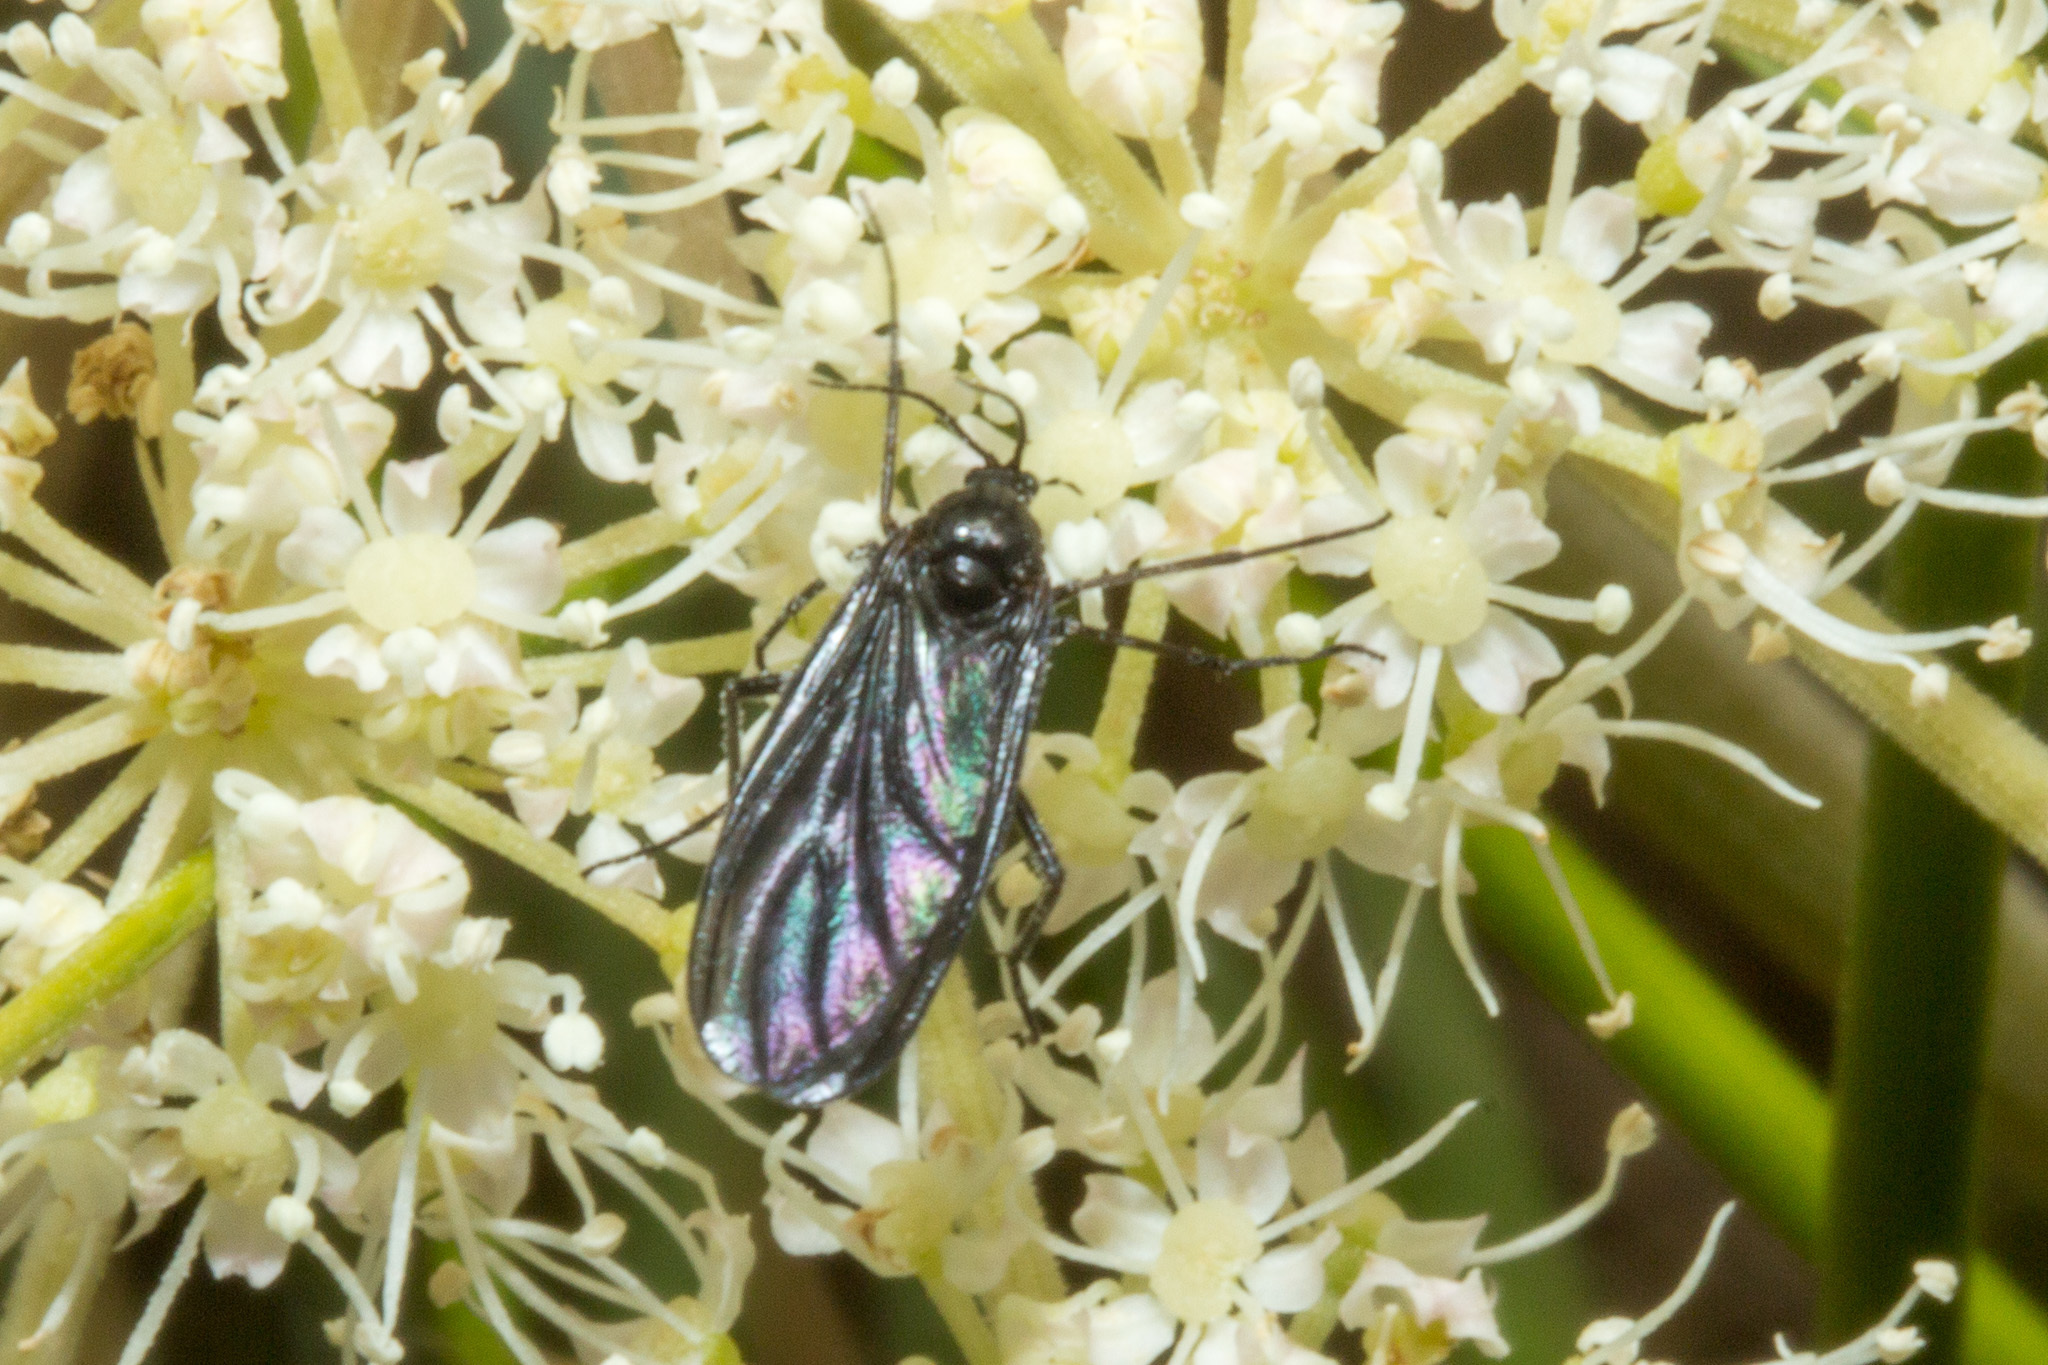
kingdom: Animalia
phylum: Arthropoda
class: Insecta
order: Diptera
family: Sciaridae
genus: Sciara
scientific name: Sciara hemerobioides
